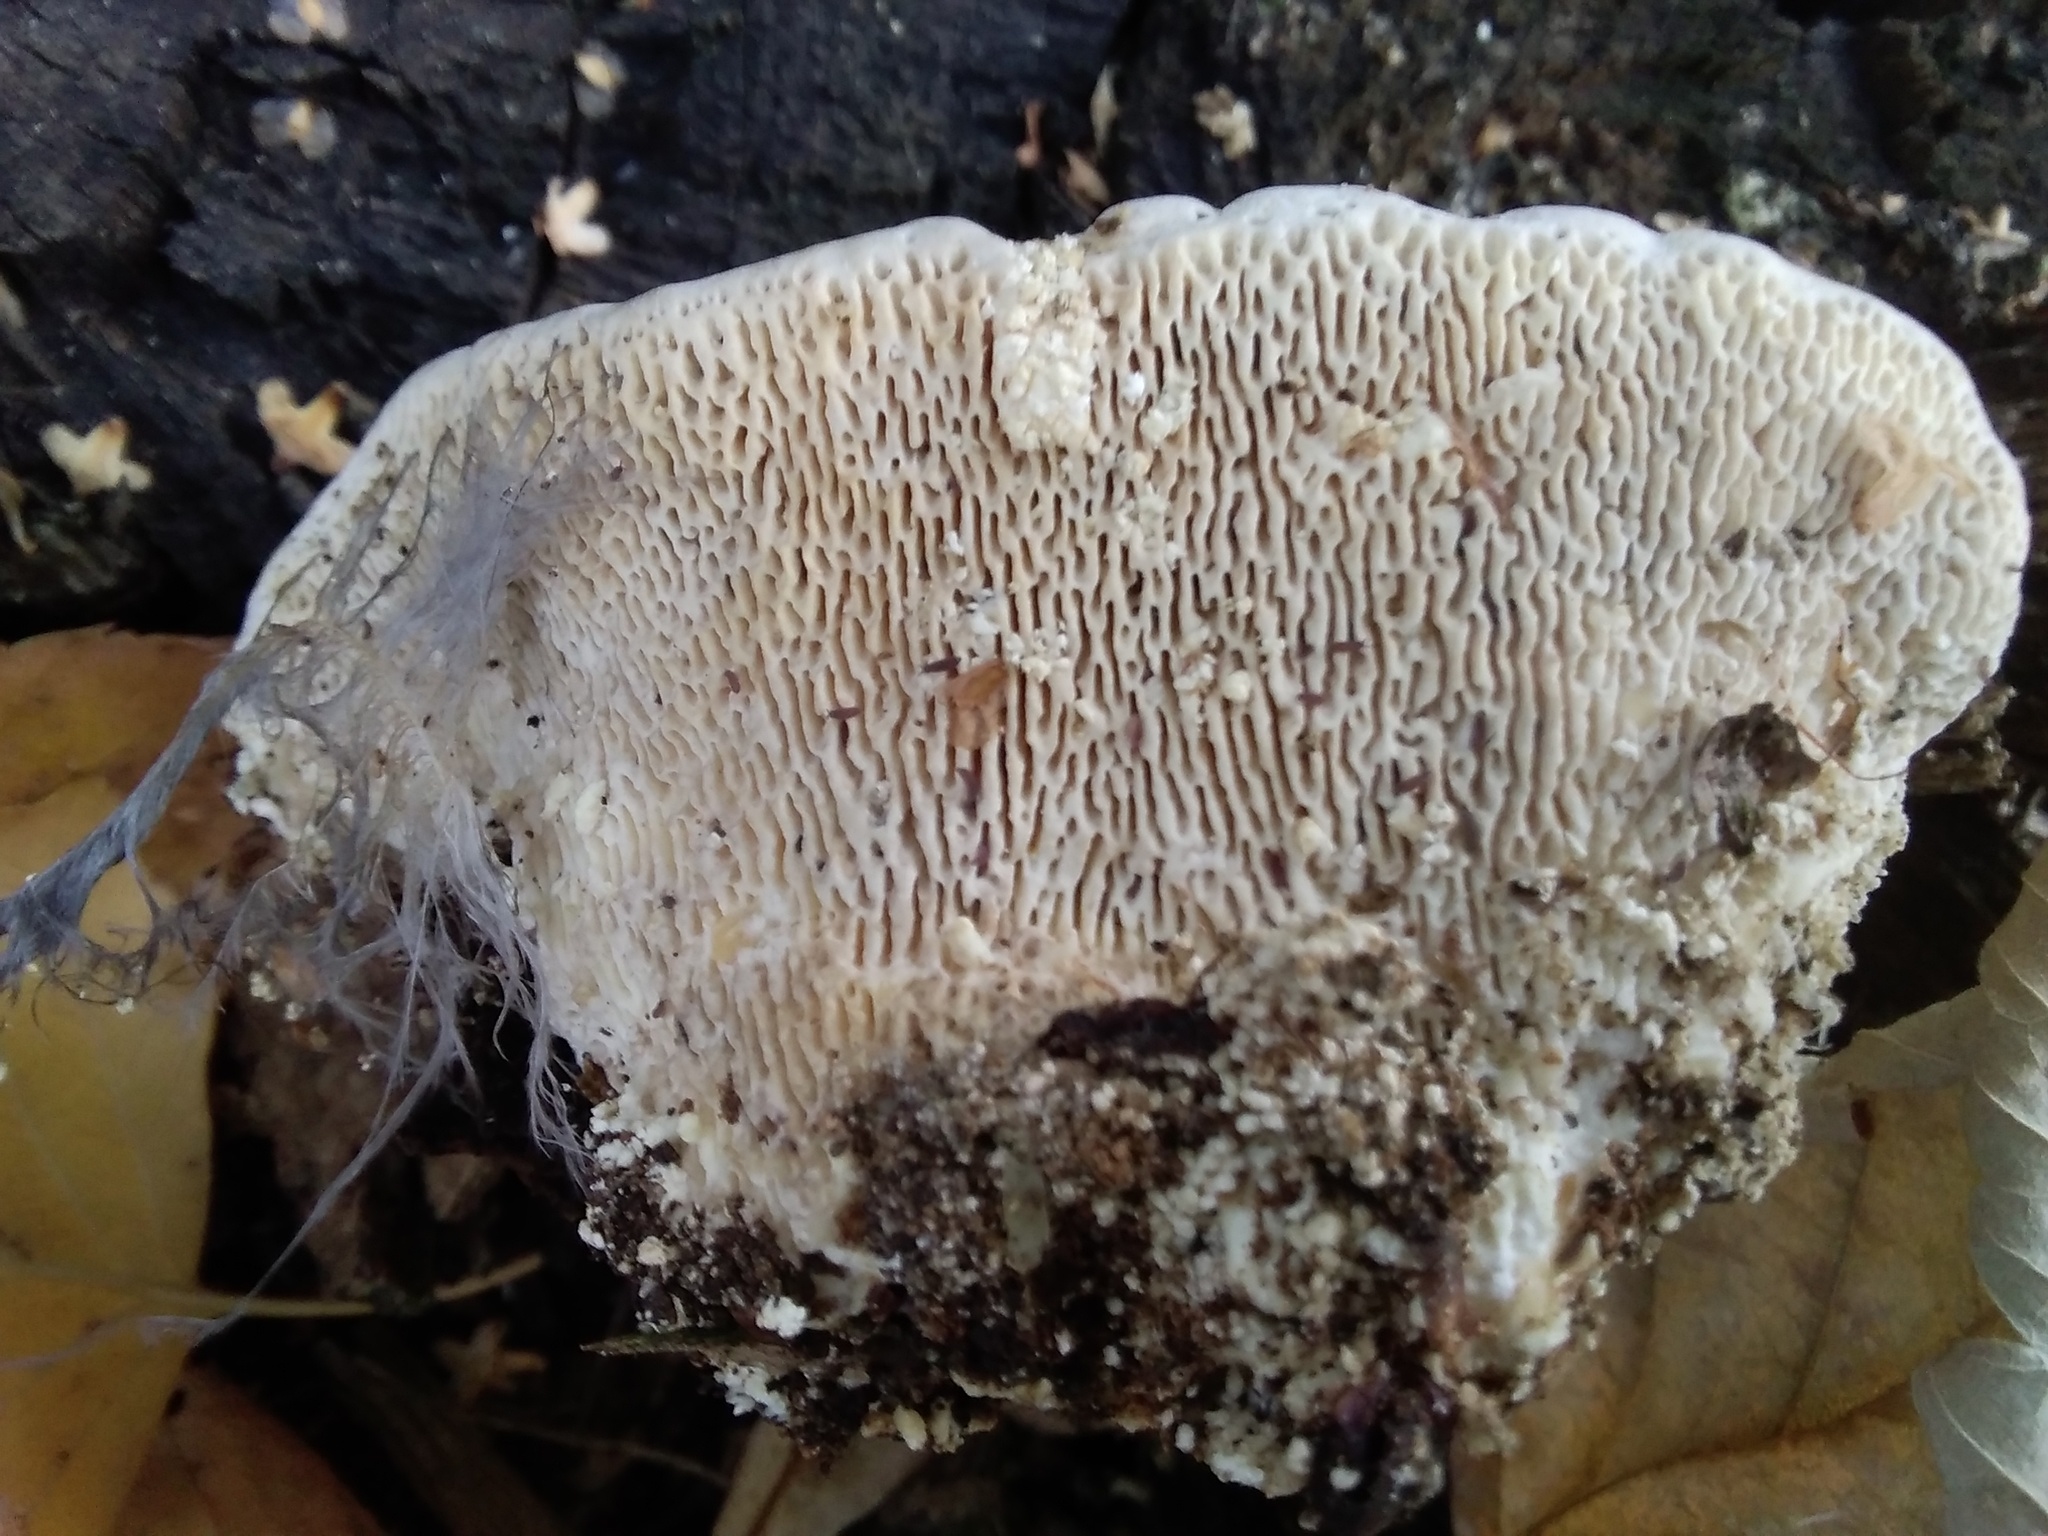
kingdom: Fungi
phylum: Basidiomycota
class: Agaricomycetes
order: Polyporales
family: Polyporaceae
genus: Trametes
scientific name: Trametes gibbosa
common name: Lumpy bracket
